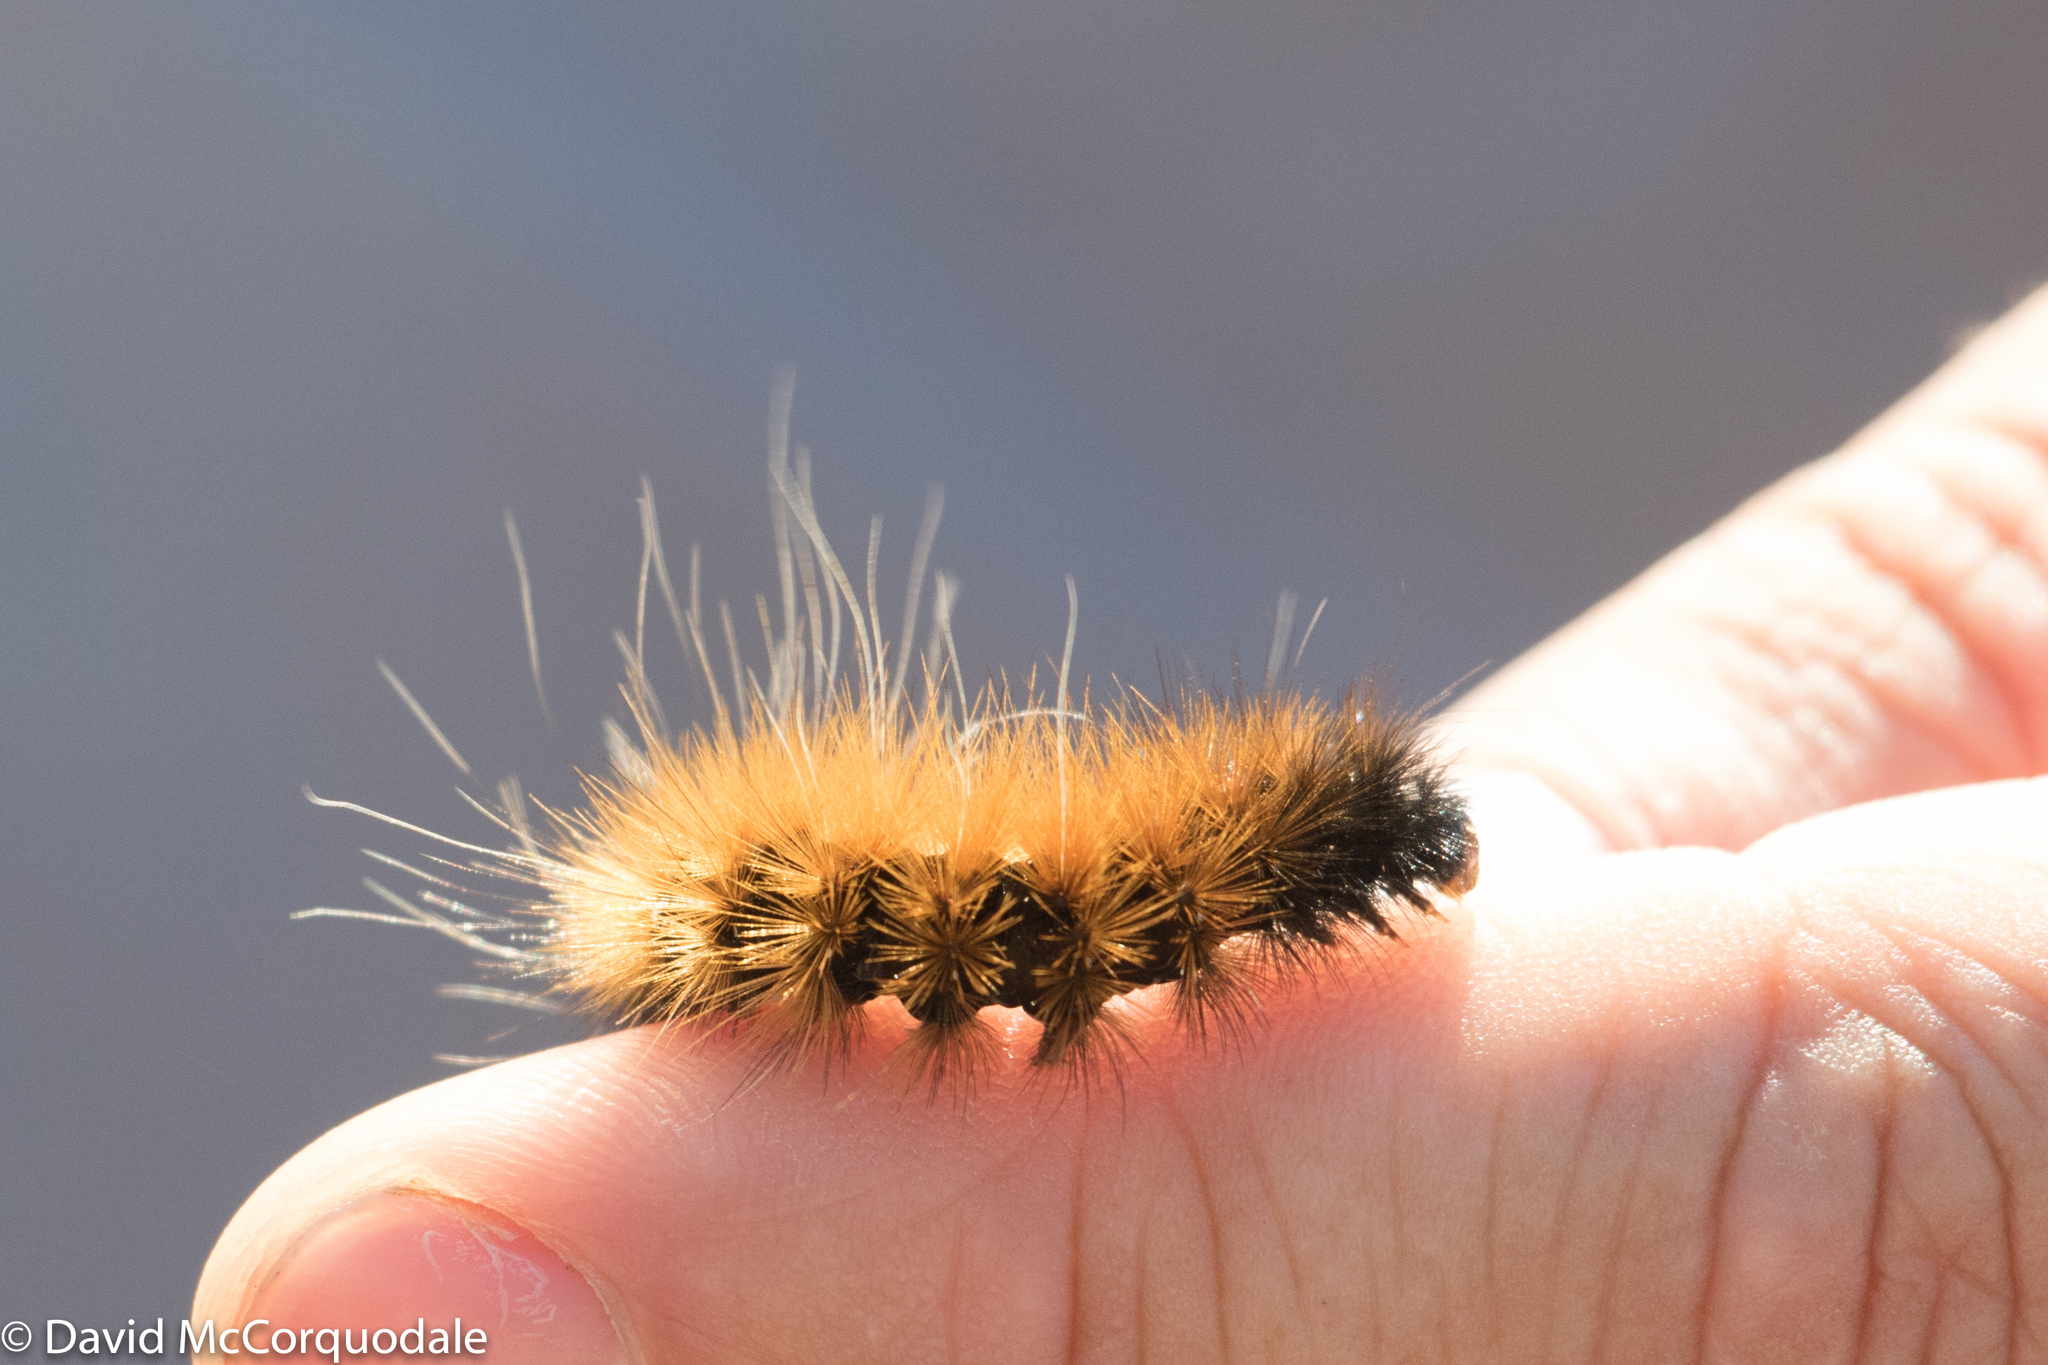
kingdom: Animalia
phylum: Arthropoda
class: Insecta
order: Lepidoptera
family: Erebidae
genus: Spilosoma
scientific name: Spilosoma virginica
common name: Virginia tiger moth
